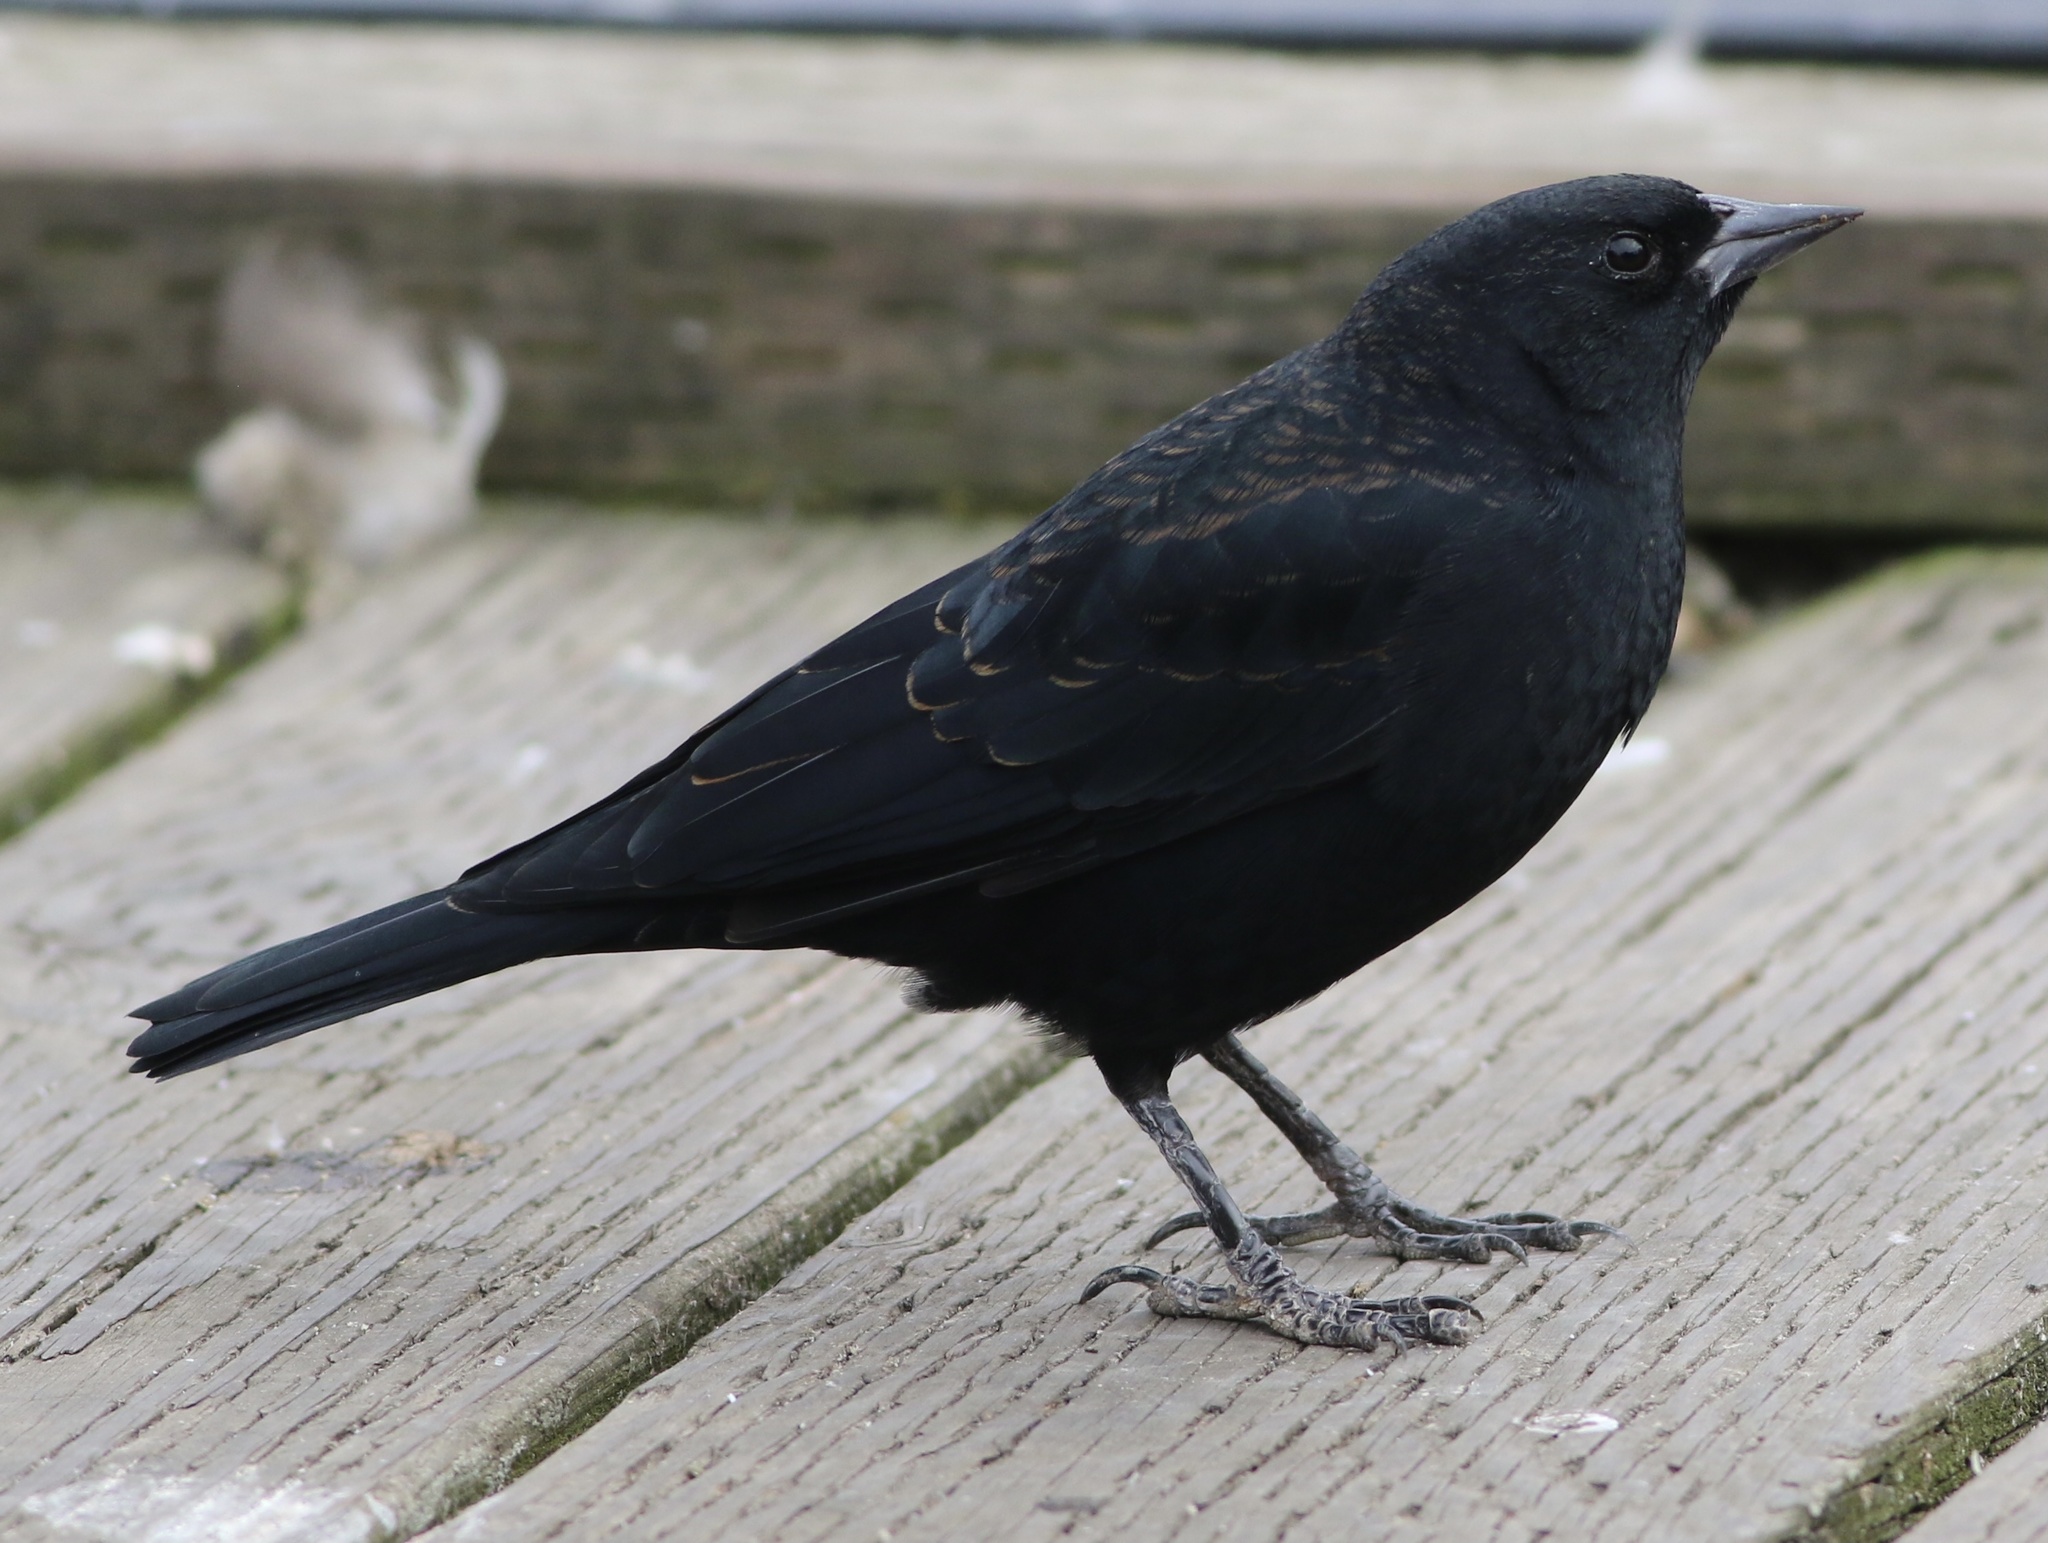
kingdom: Animalia
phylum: Chordata
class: Aves
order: Passeriformes
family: Icteridae
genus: Agelaius
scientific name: Agelaius phoeniceus
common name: Red-winged blackbird
